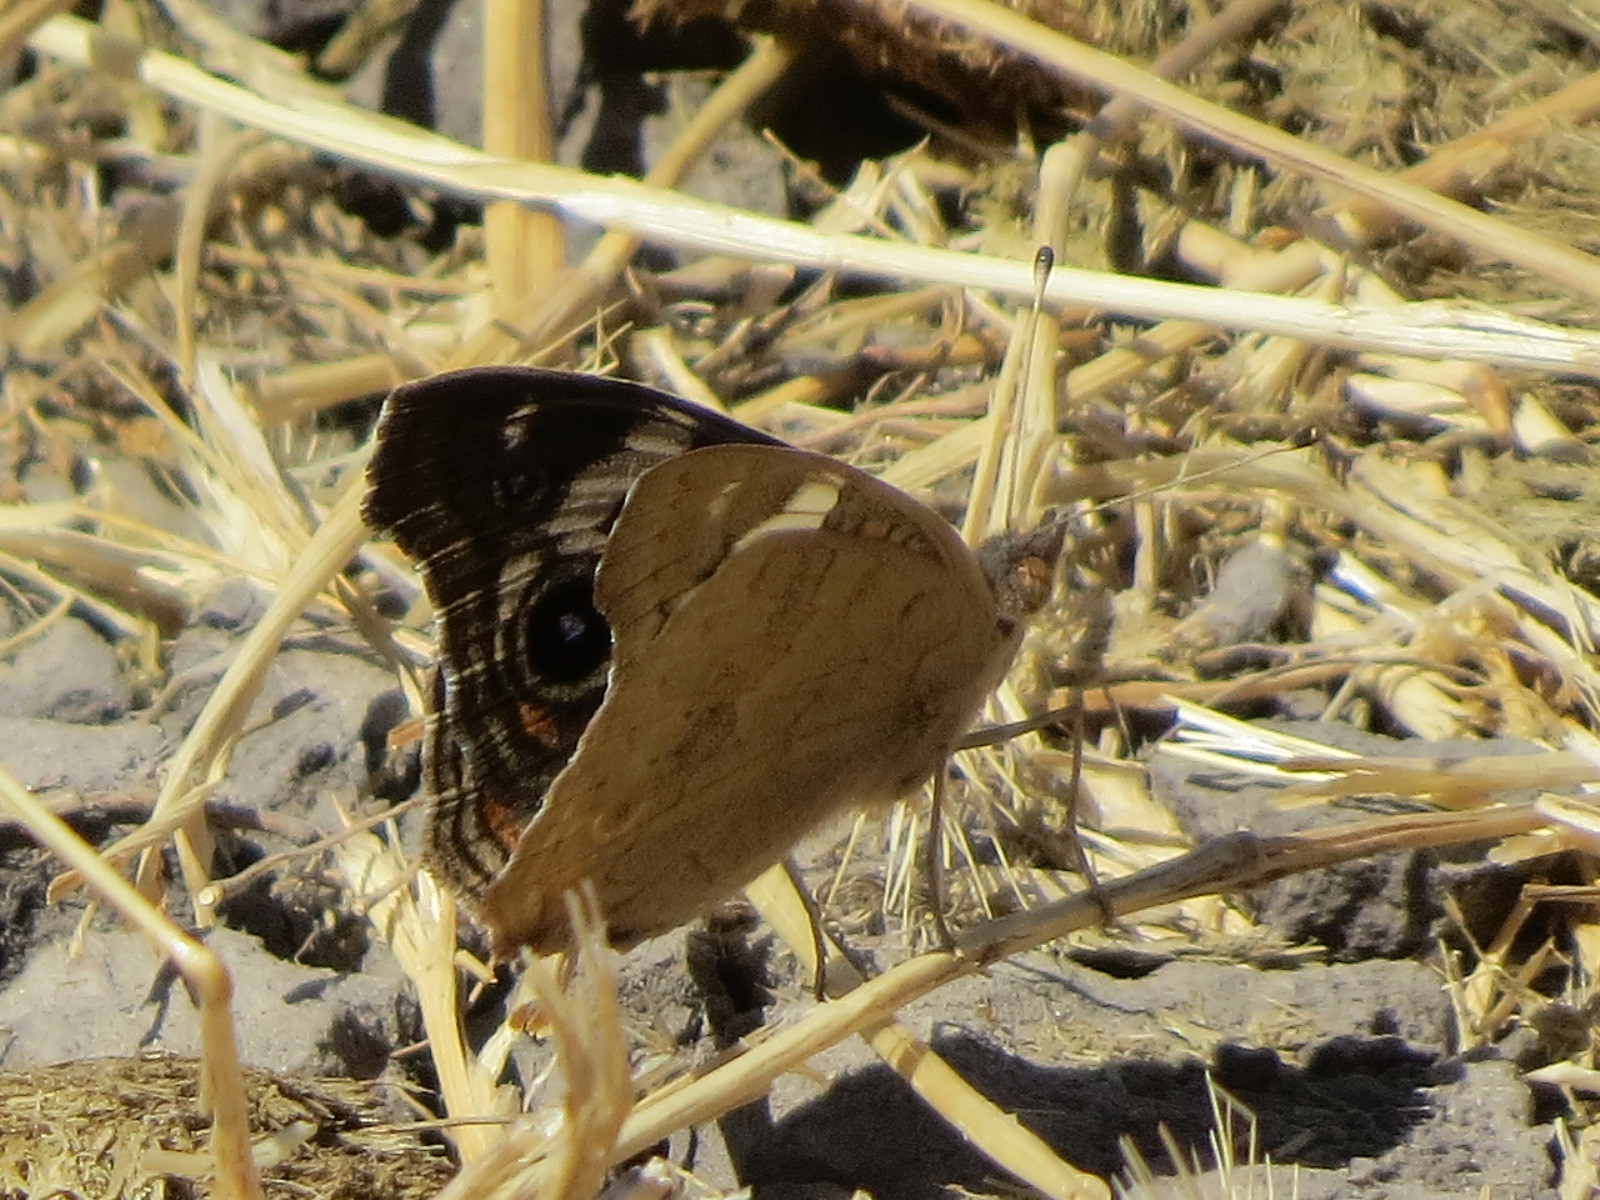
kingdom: Animalia
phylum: Arthropoda
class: Insecta
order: Lepidoptera
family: Nymphalidae
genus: Junonia
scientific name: Junonia grisea
